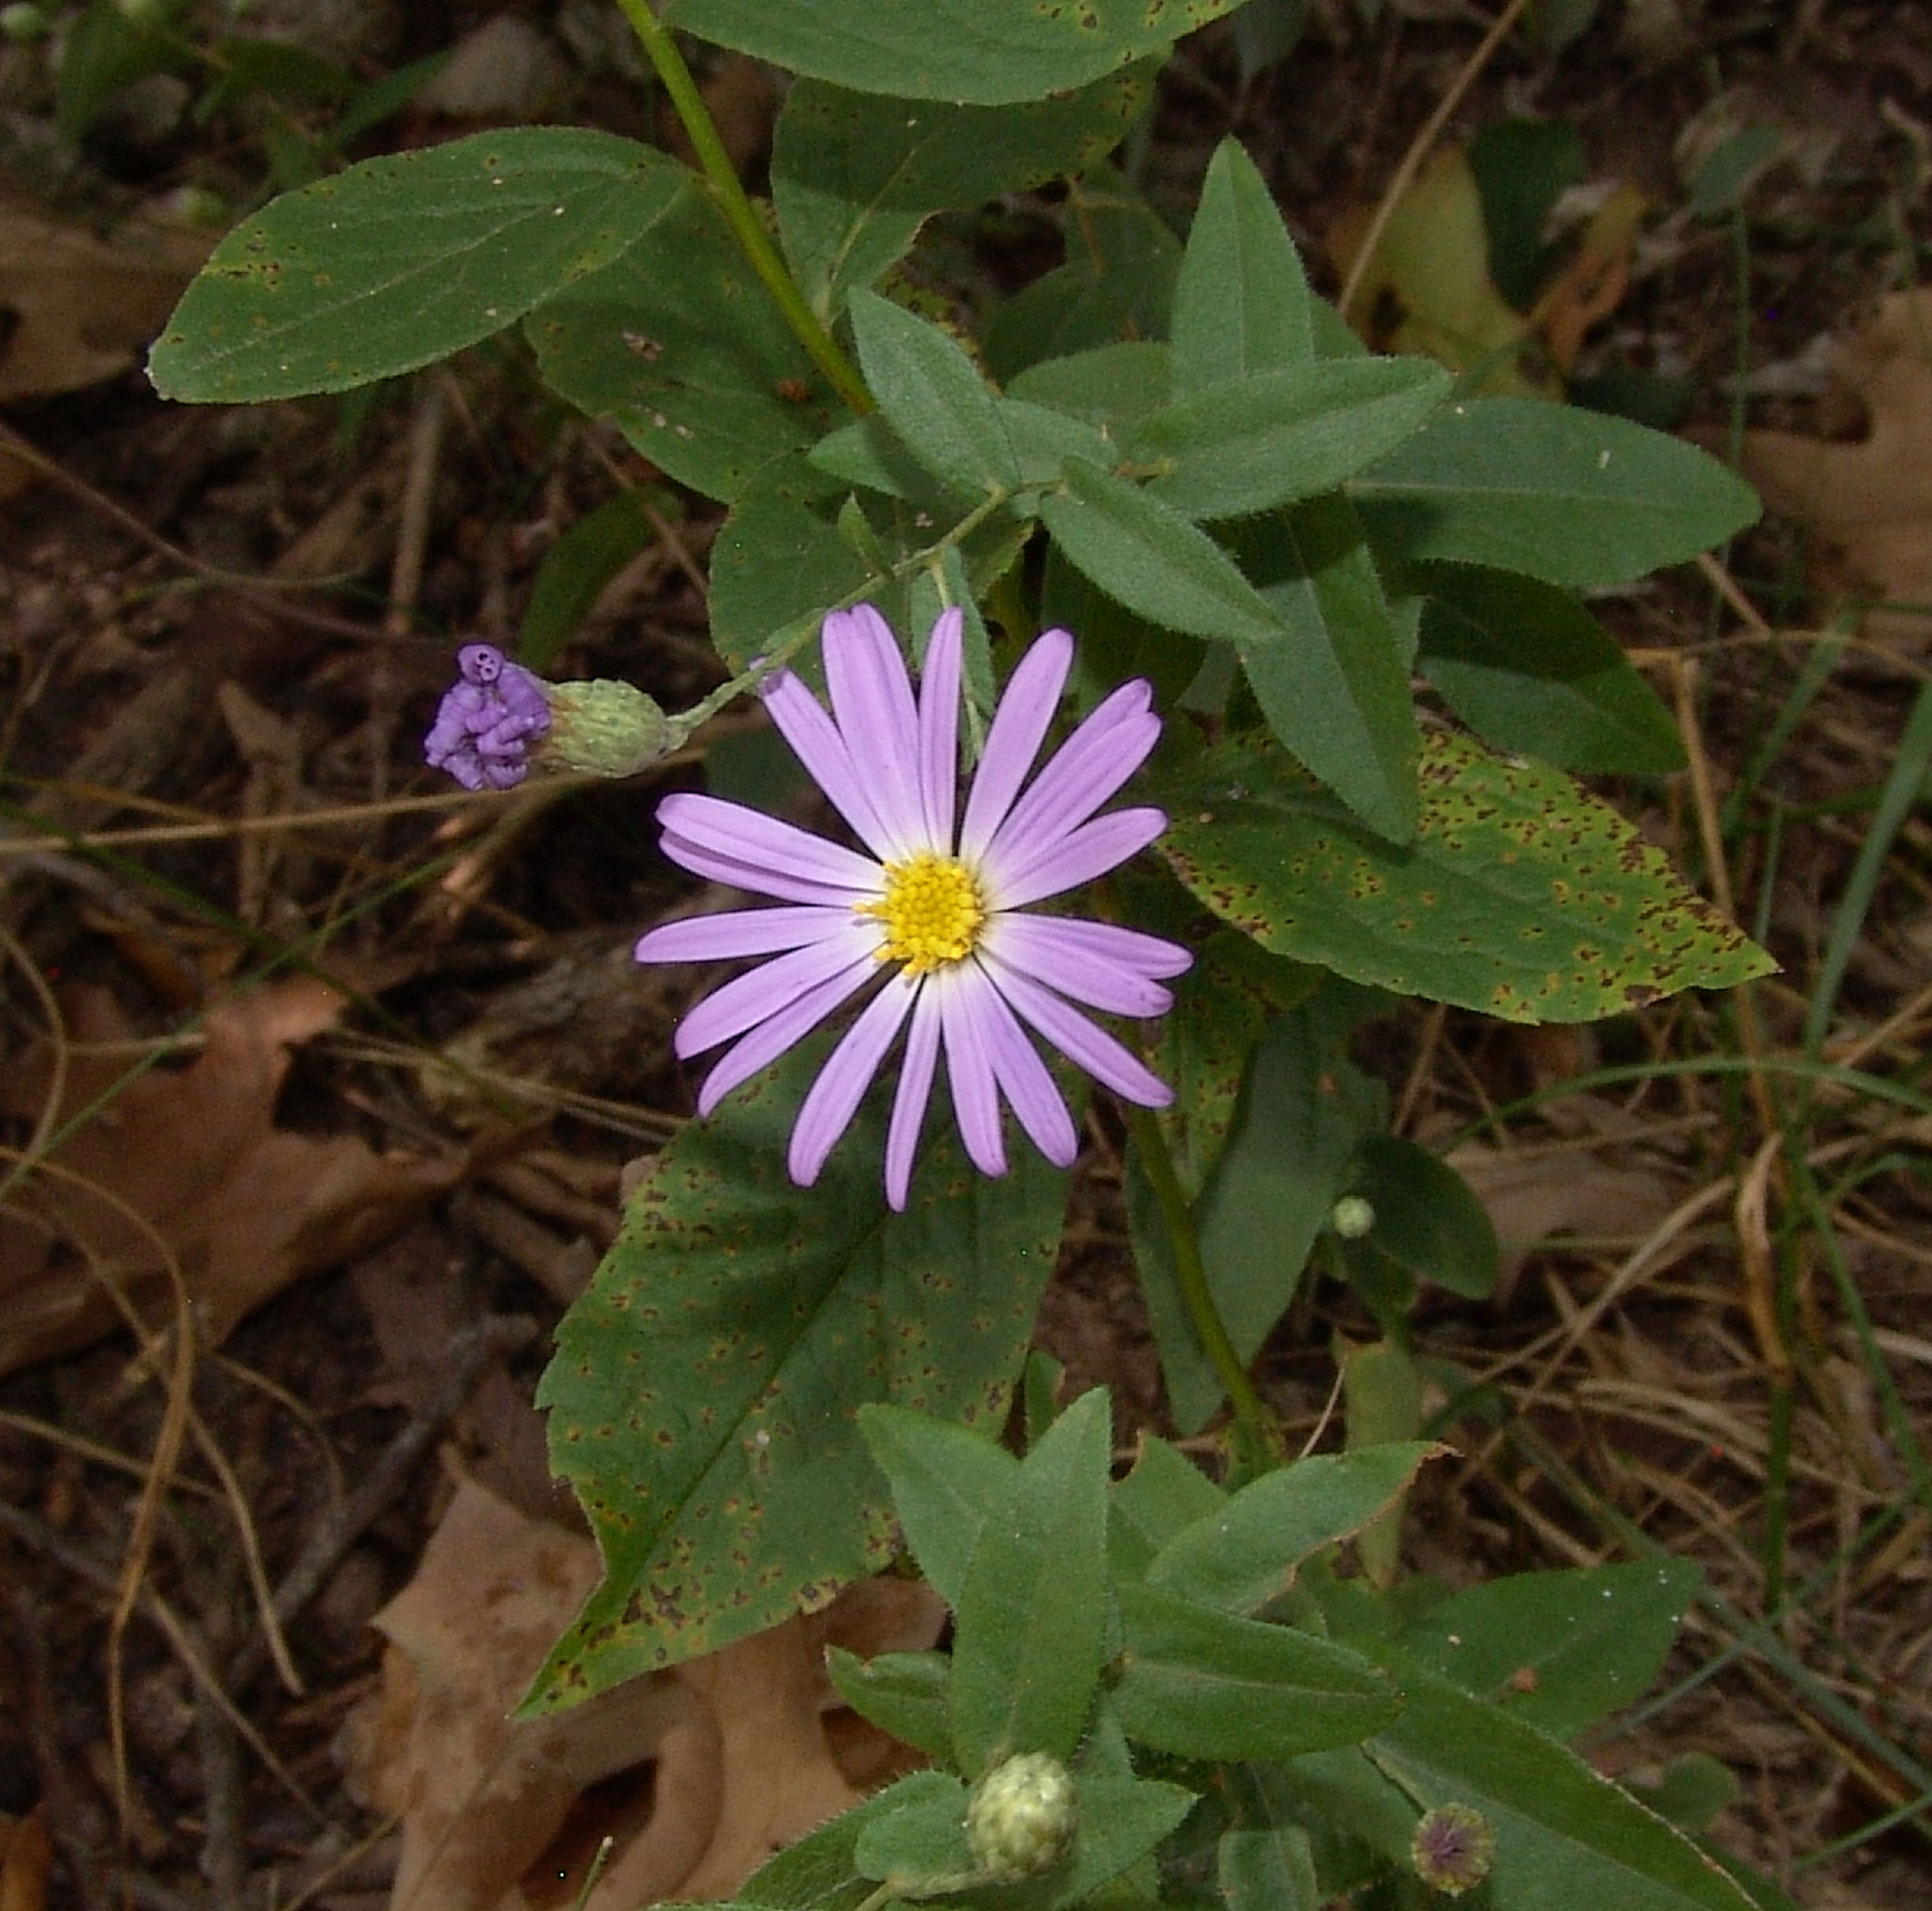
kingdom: Plantae
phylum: Tracheophyta
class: Magnoliopsida
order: Asterales
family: Asteraceae
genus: Symphyotrichum
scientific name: Symphyotrichum patens
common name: Late purple aster
